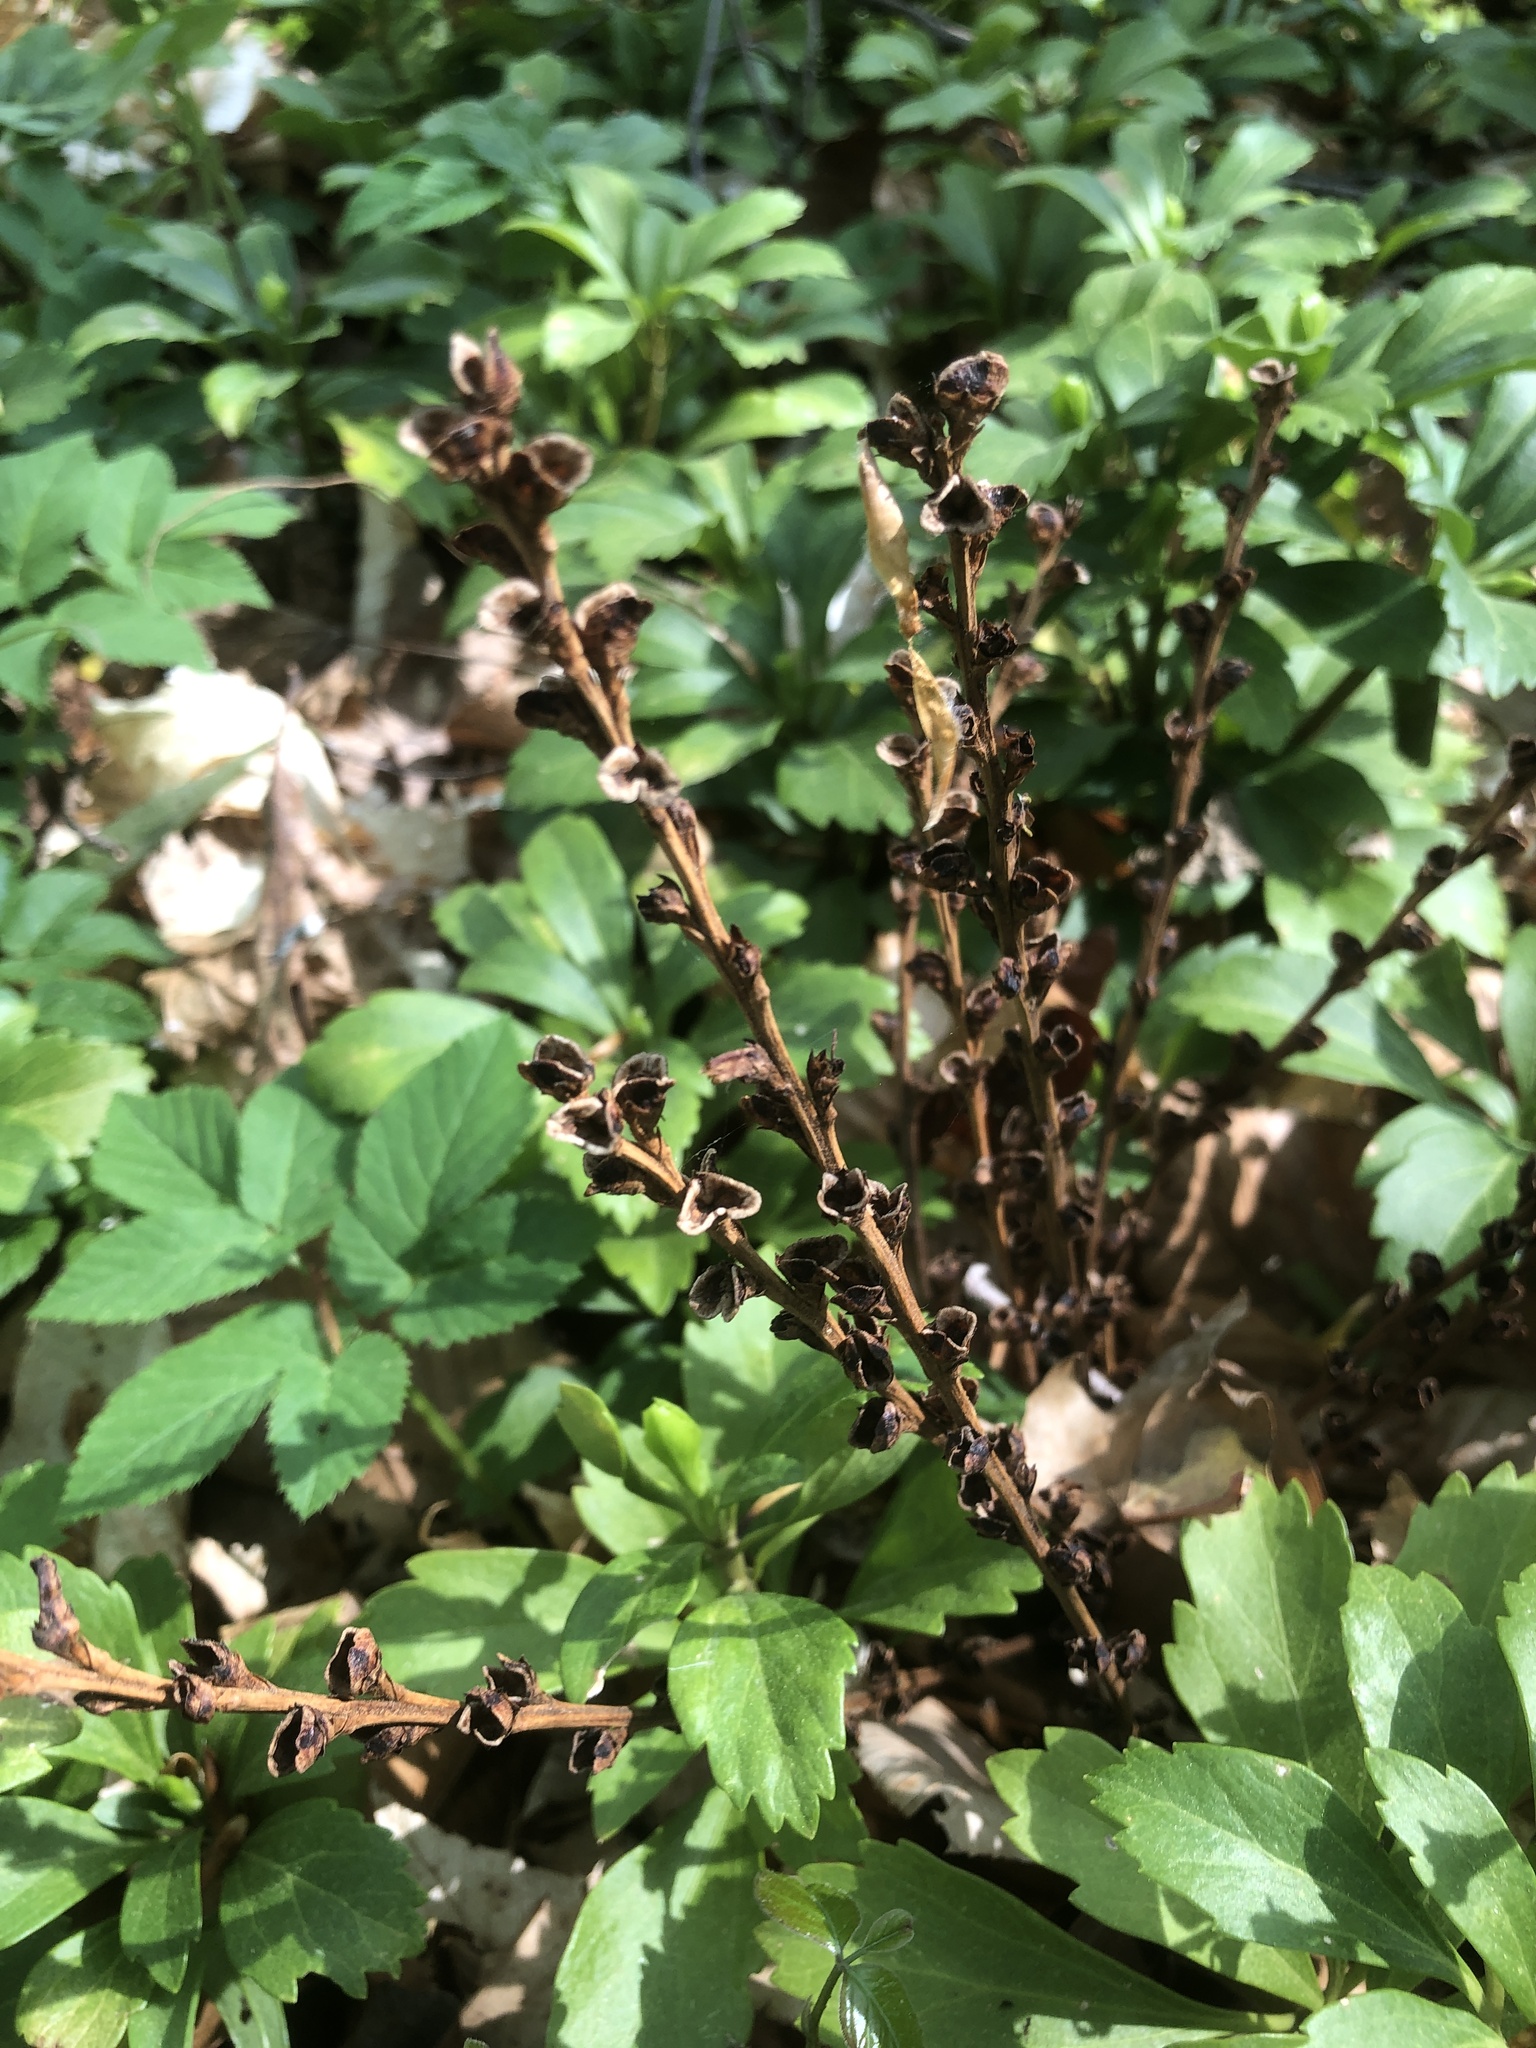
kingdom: Plantae
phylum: Tracheophyta
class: Magnoliopsida
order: Lamiales
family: Orobanchaceae
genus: Epifagus
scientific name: Epifagus virginiana
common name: Beechdrops
